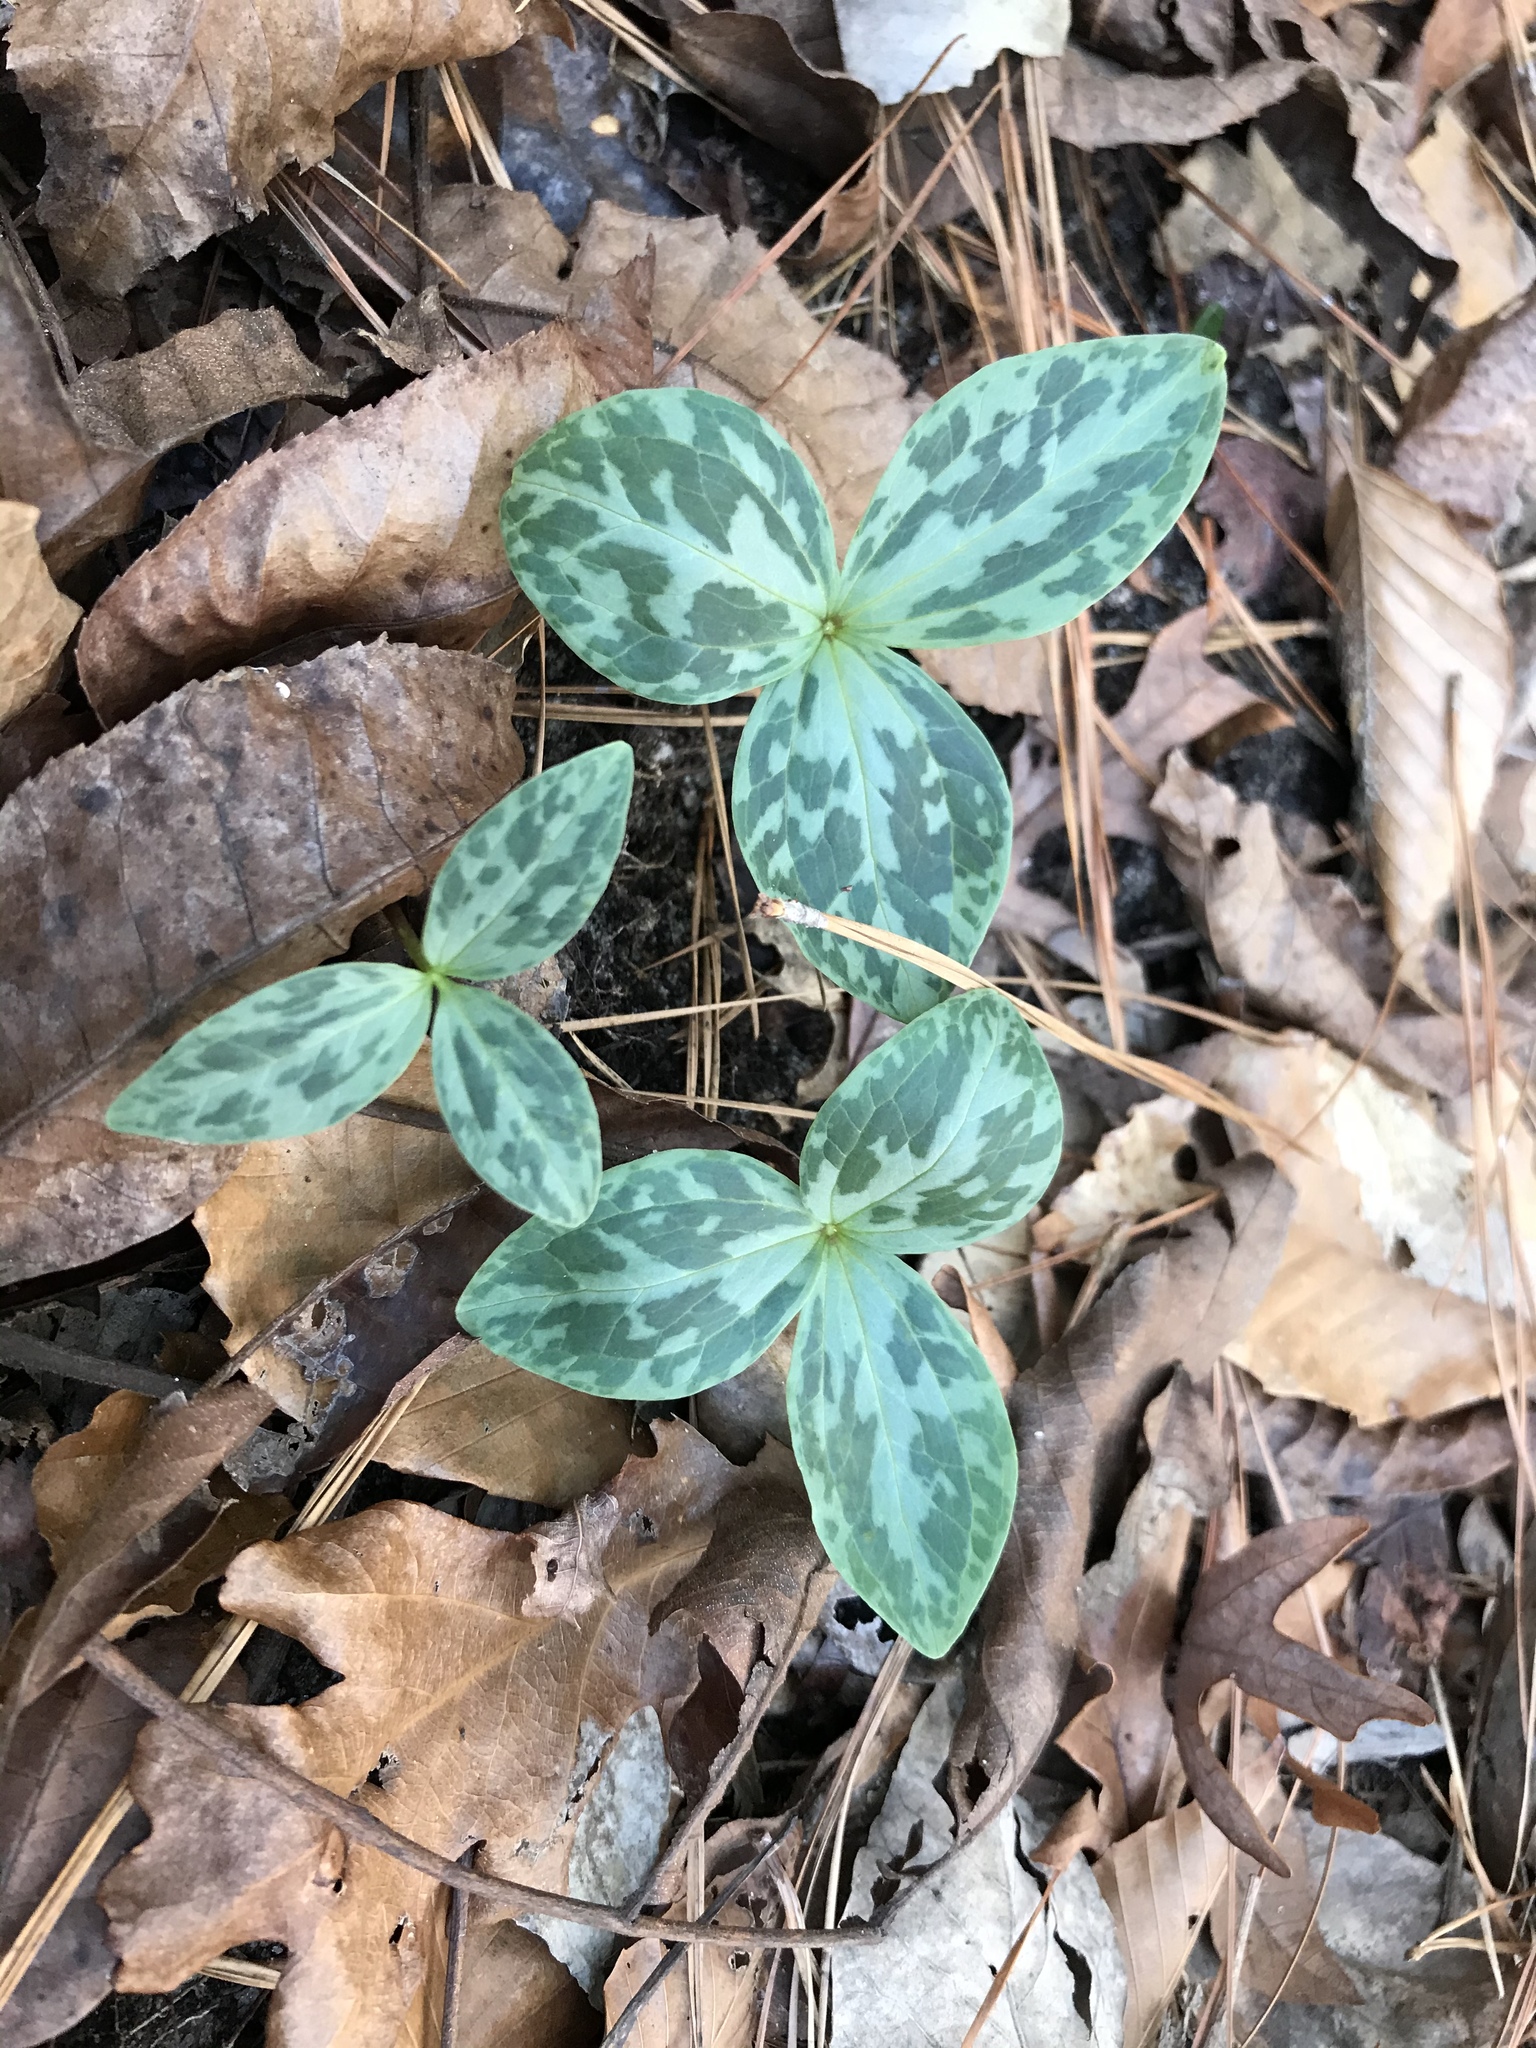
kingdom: Plantae
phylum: Tracheophyta
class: Liliopsida
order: Liliales
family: Melanthiaceae
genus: Trillium
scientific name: Trillium gracile
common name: Graceful trillium
